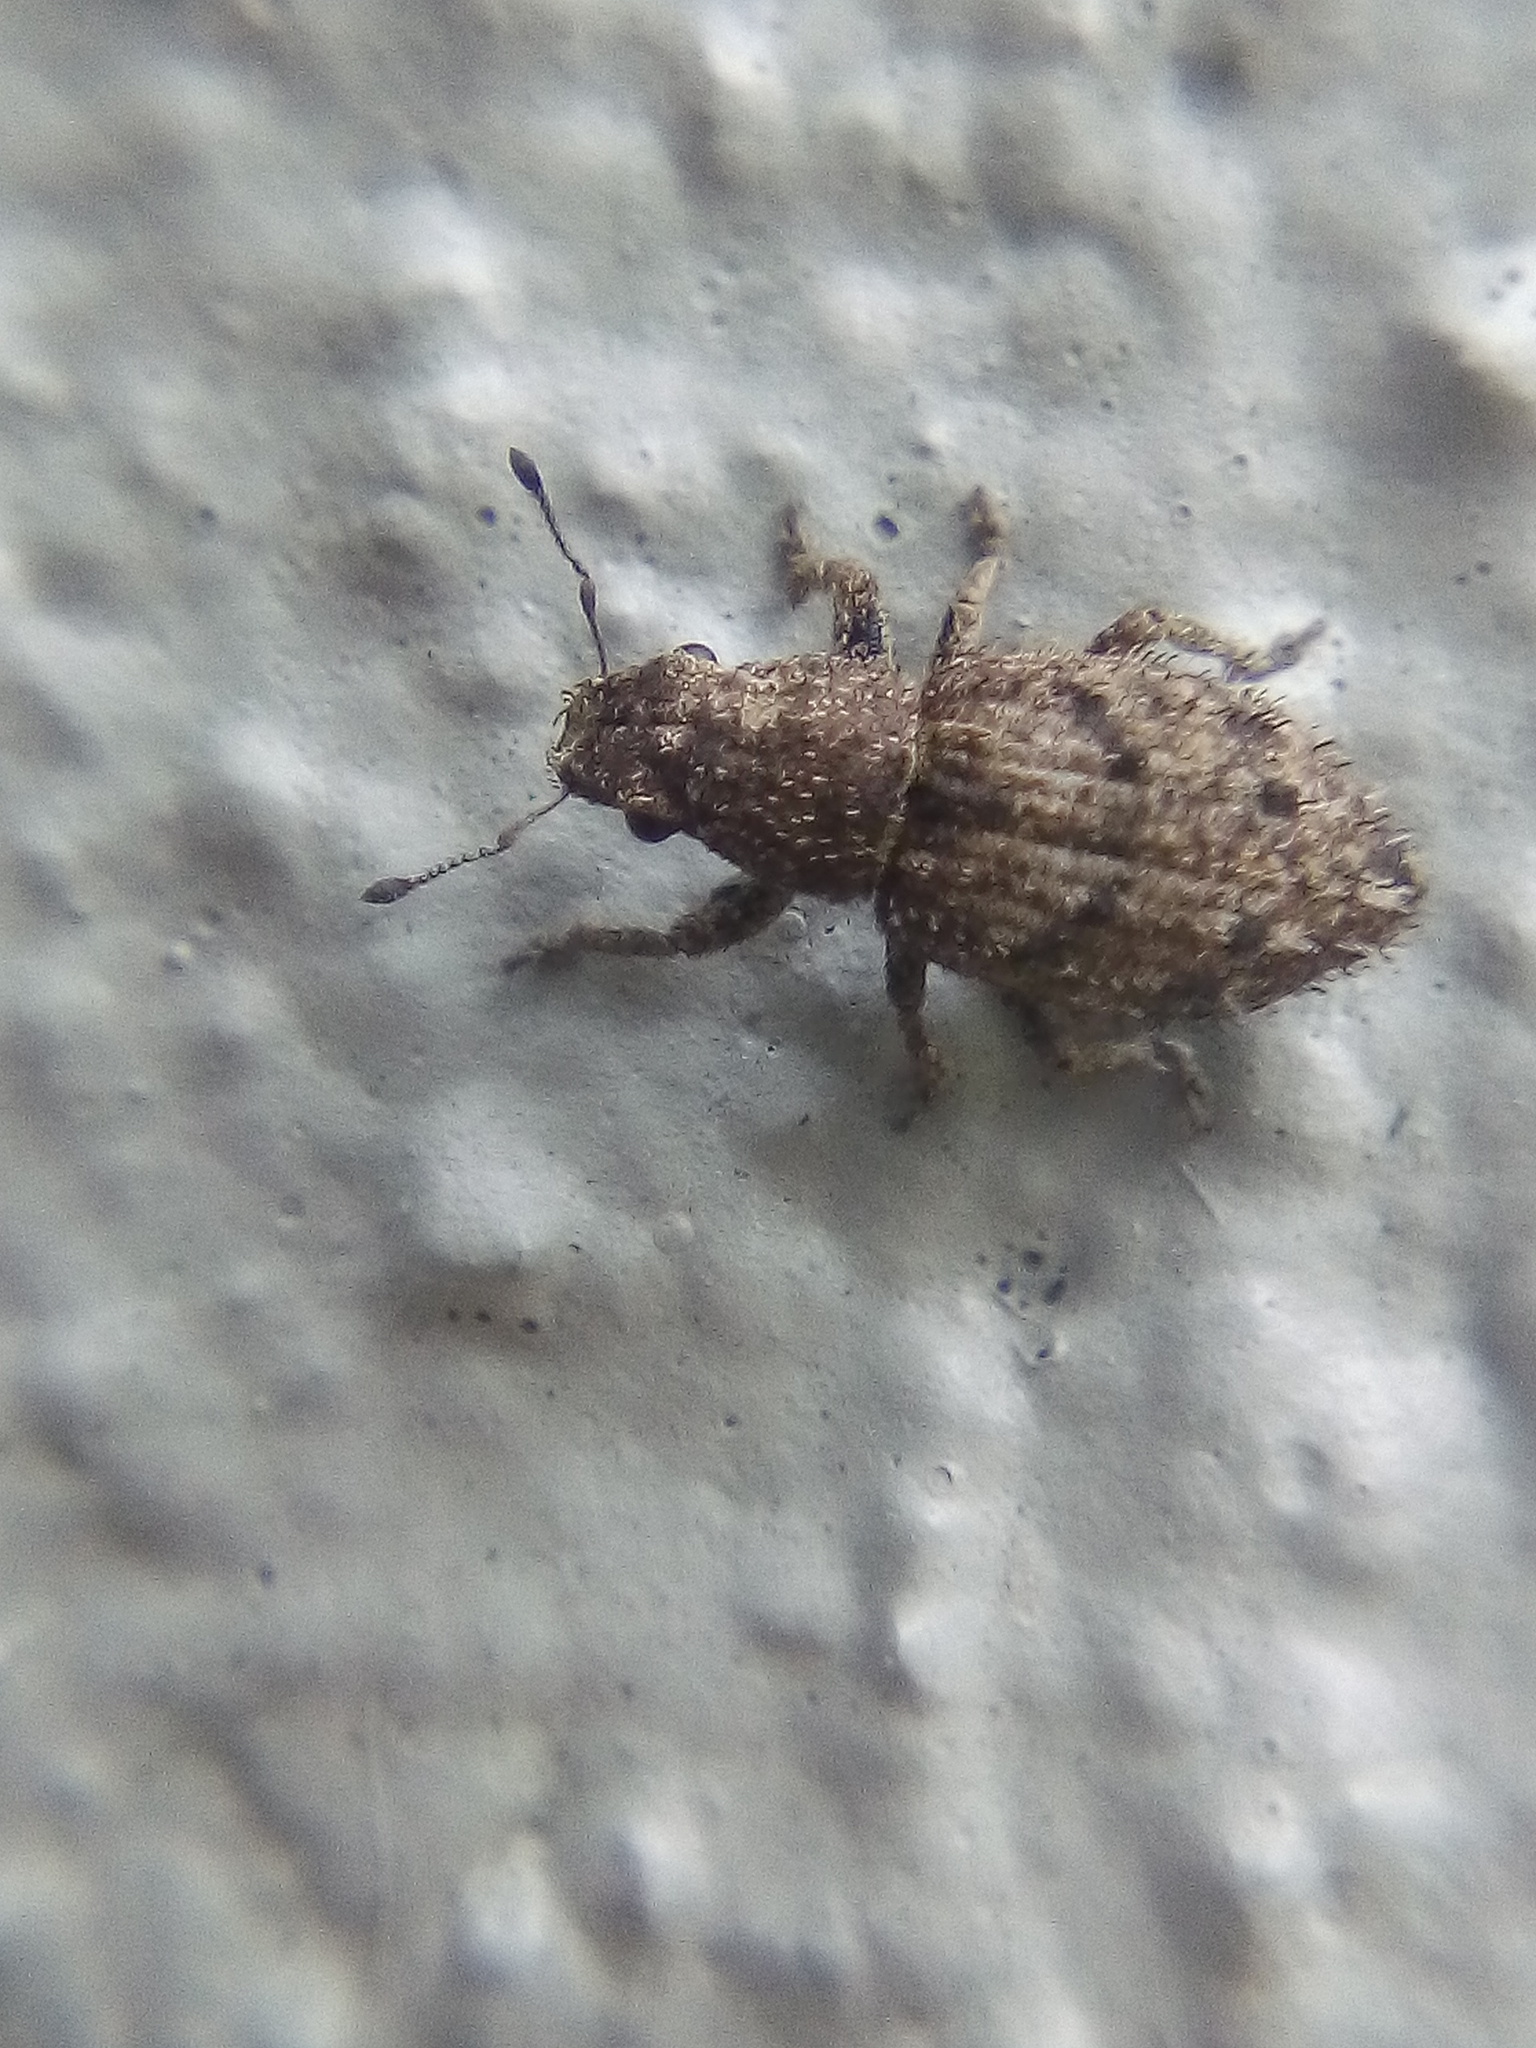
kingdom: Animalia
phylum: Arthropoda
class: Insecta
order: Coleoptera
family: Curculionidae
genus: Floresianus
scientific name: Floresianus sordidus
